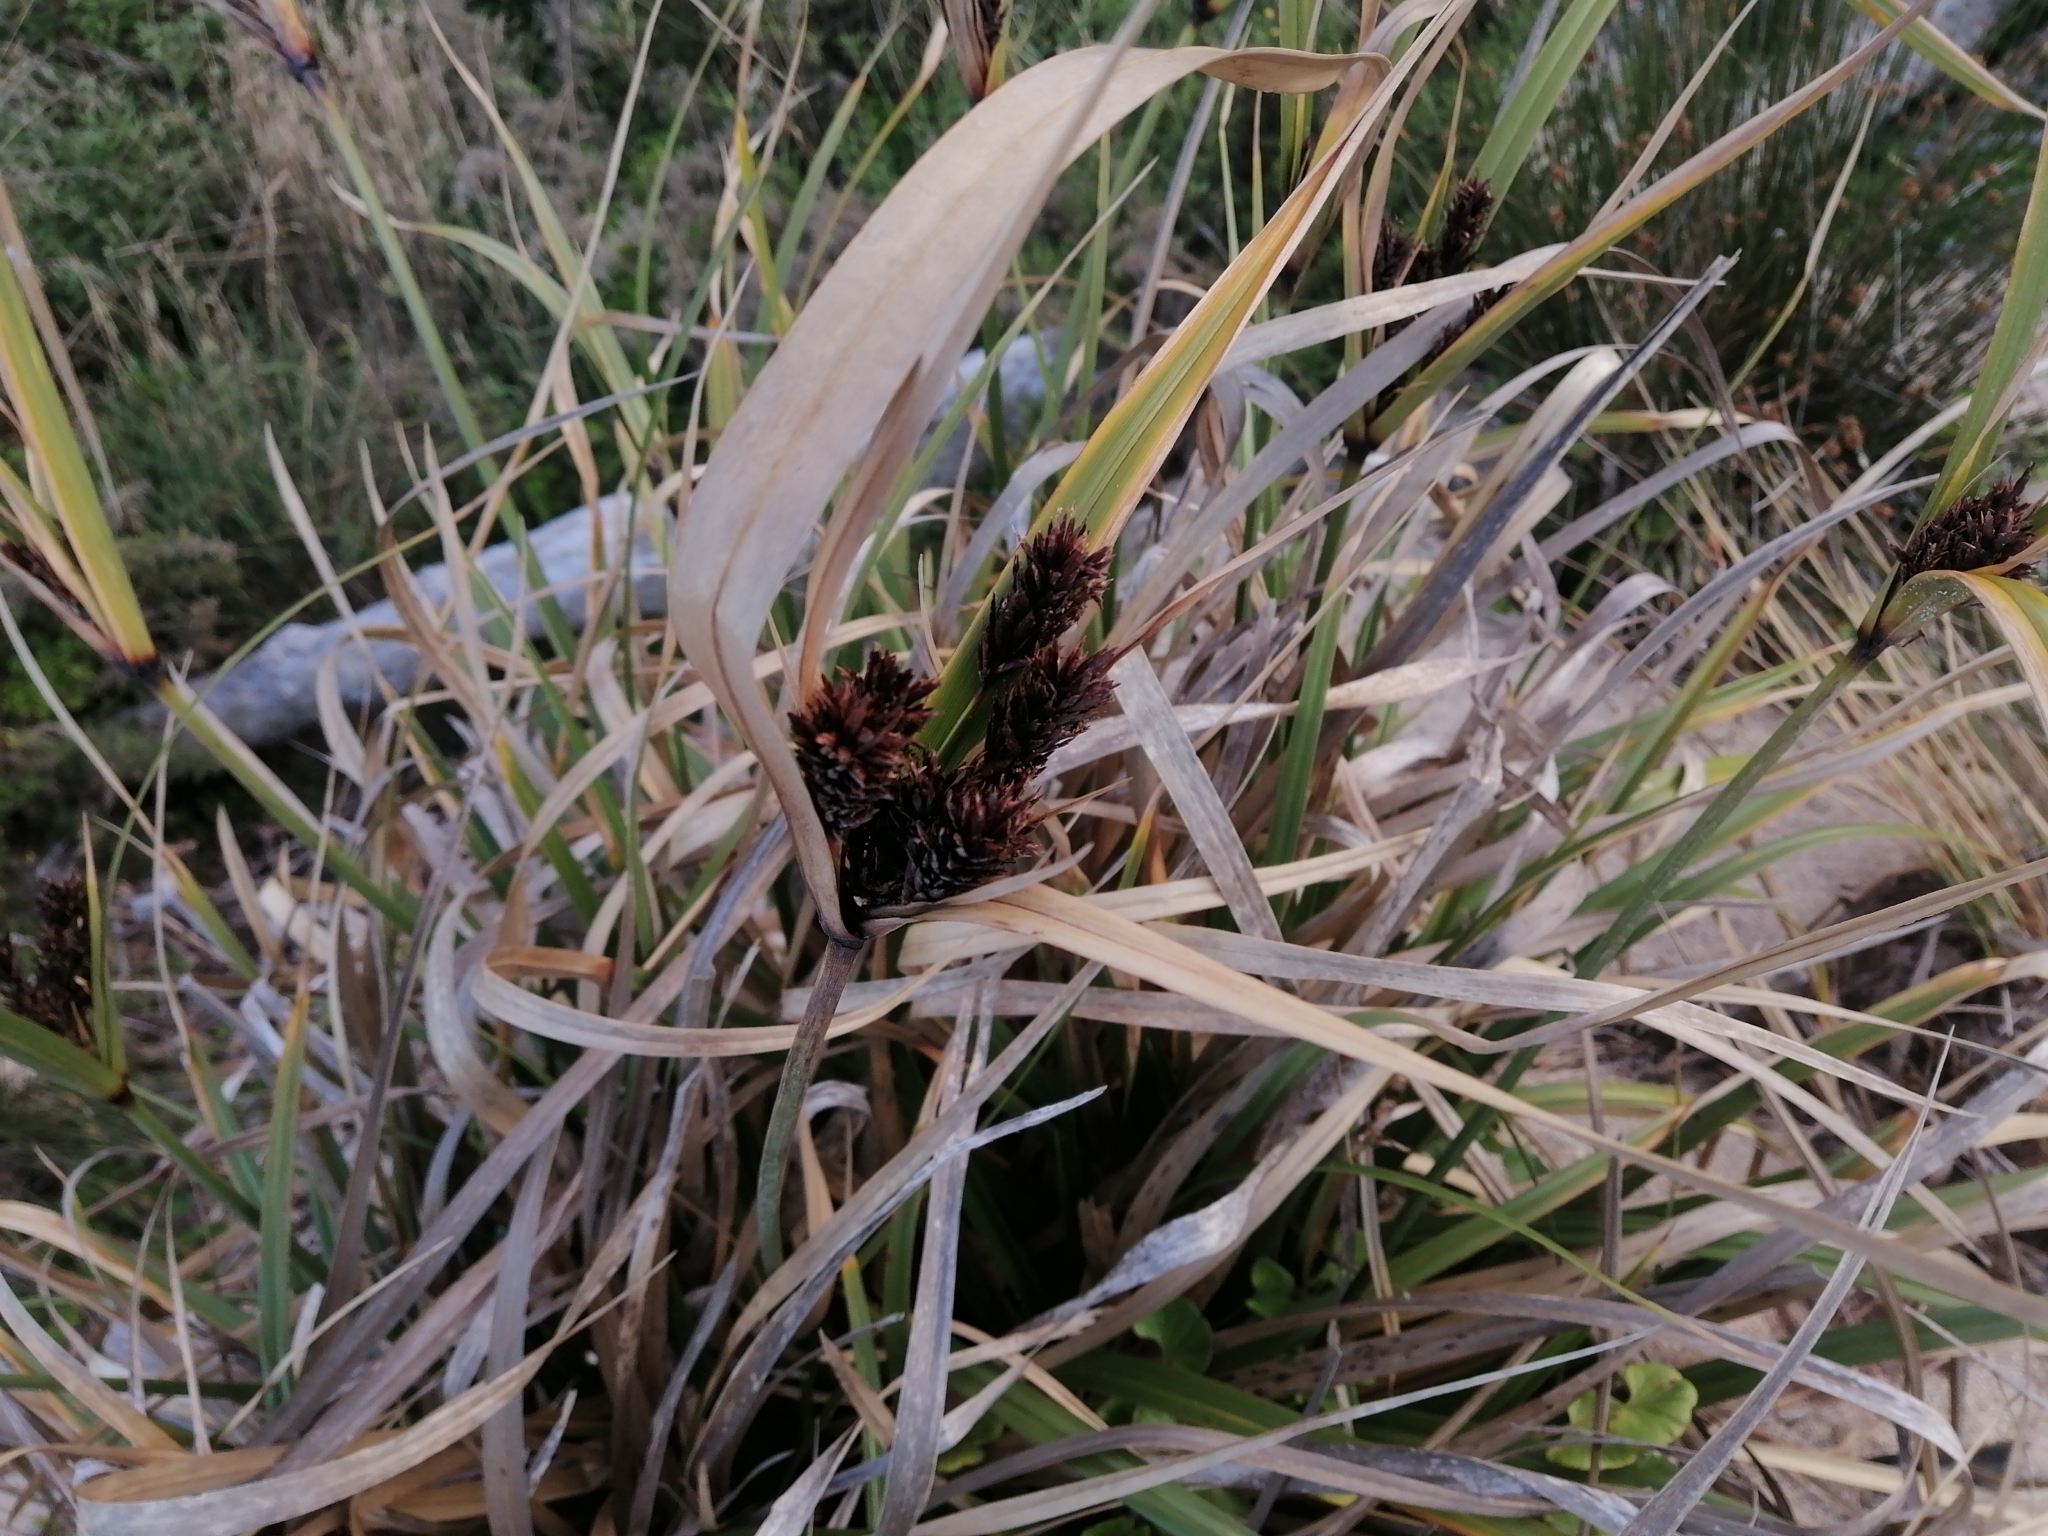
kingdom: Plantae
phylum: Tracheophyta
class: Liliopsida
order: Poales
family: Cyperaceae
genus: Cyperus
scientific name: Cyperus ustulatus
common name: Giant umbrella-sedge
